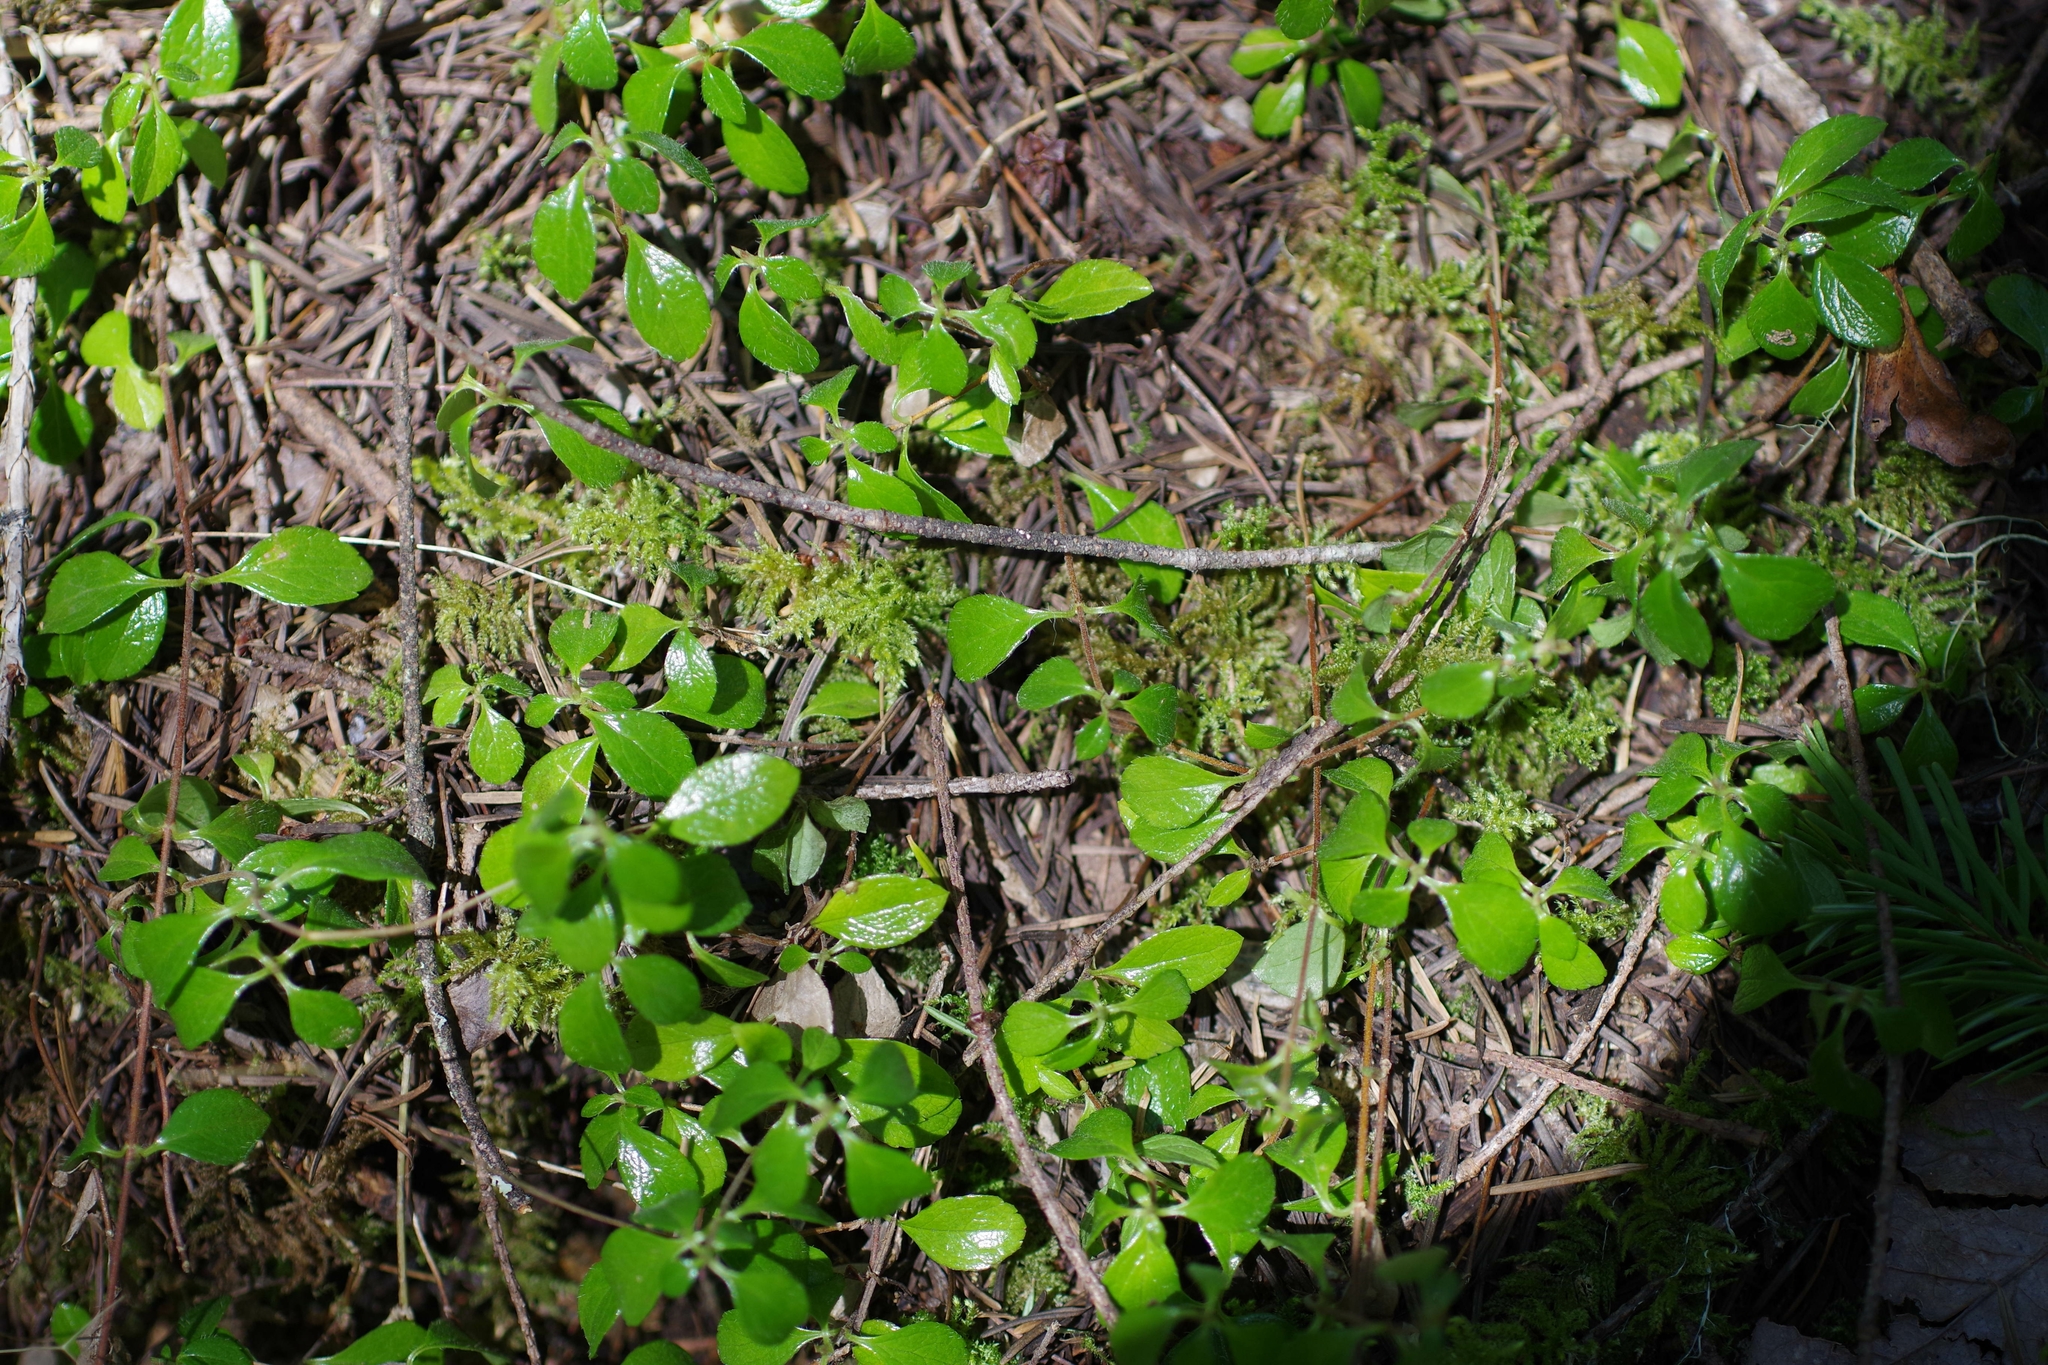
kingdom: Plantae
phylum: Tracheophyta
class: Magnoliopsida
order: Dipsacales
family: Caprifoliaceae
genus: Linnaea
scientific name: Linnaea borealis
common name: Twinflower
